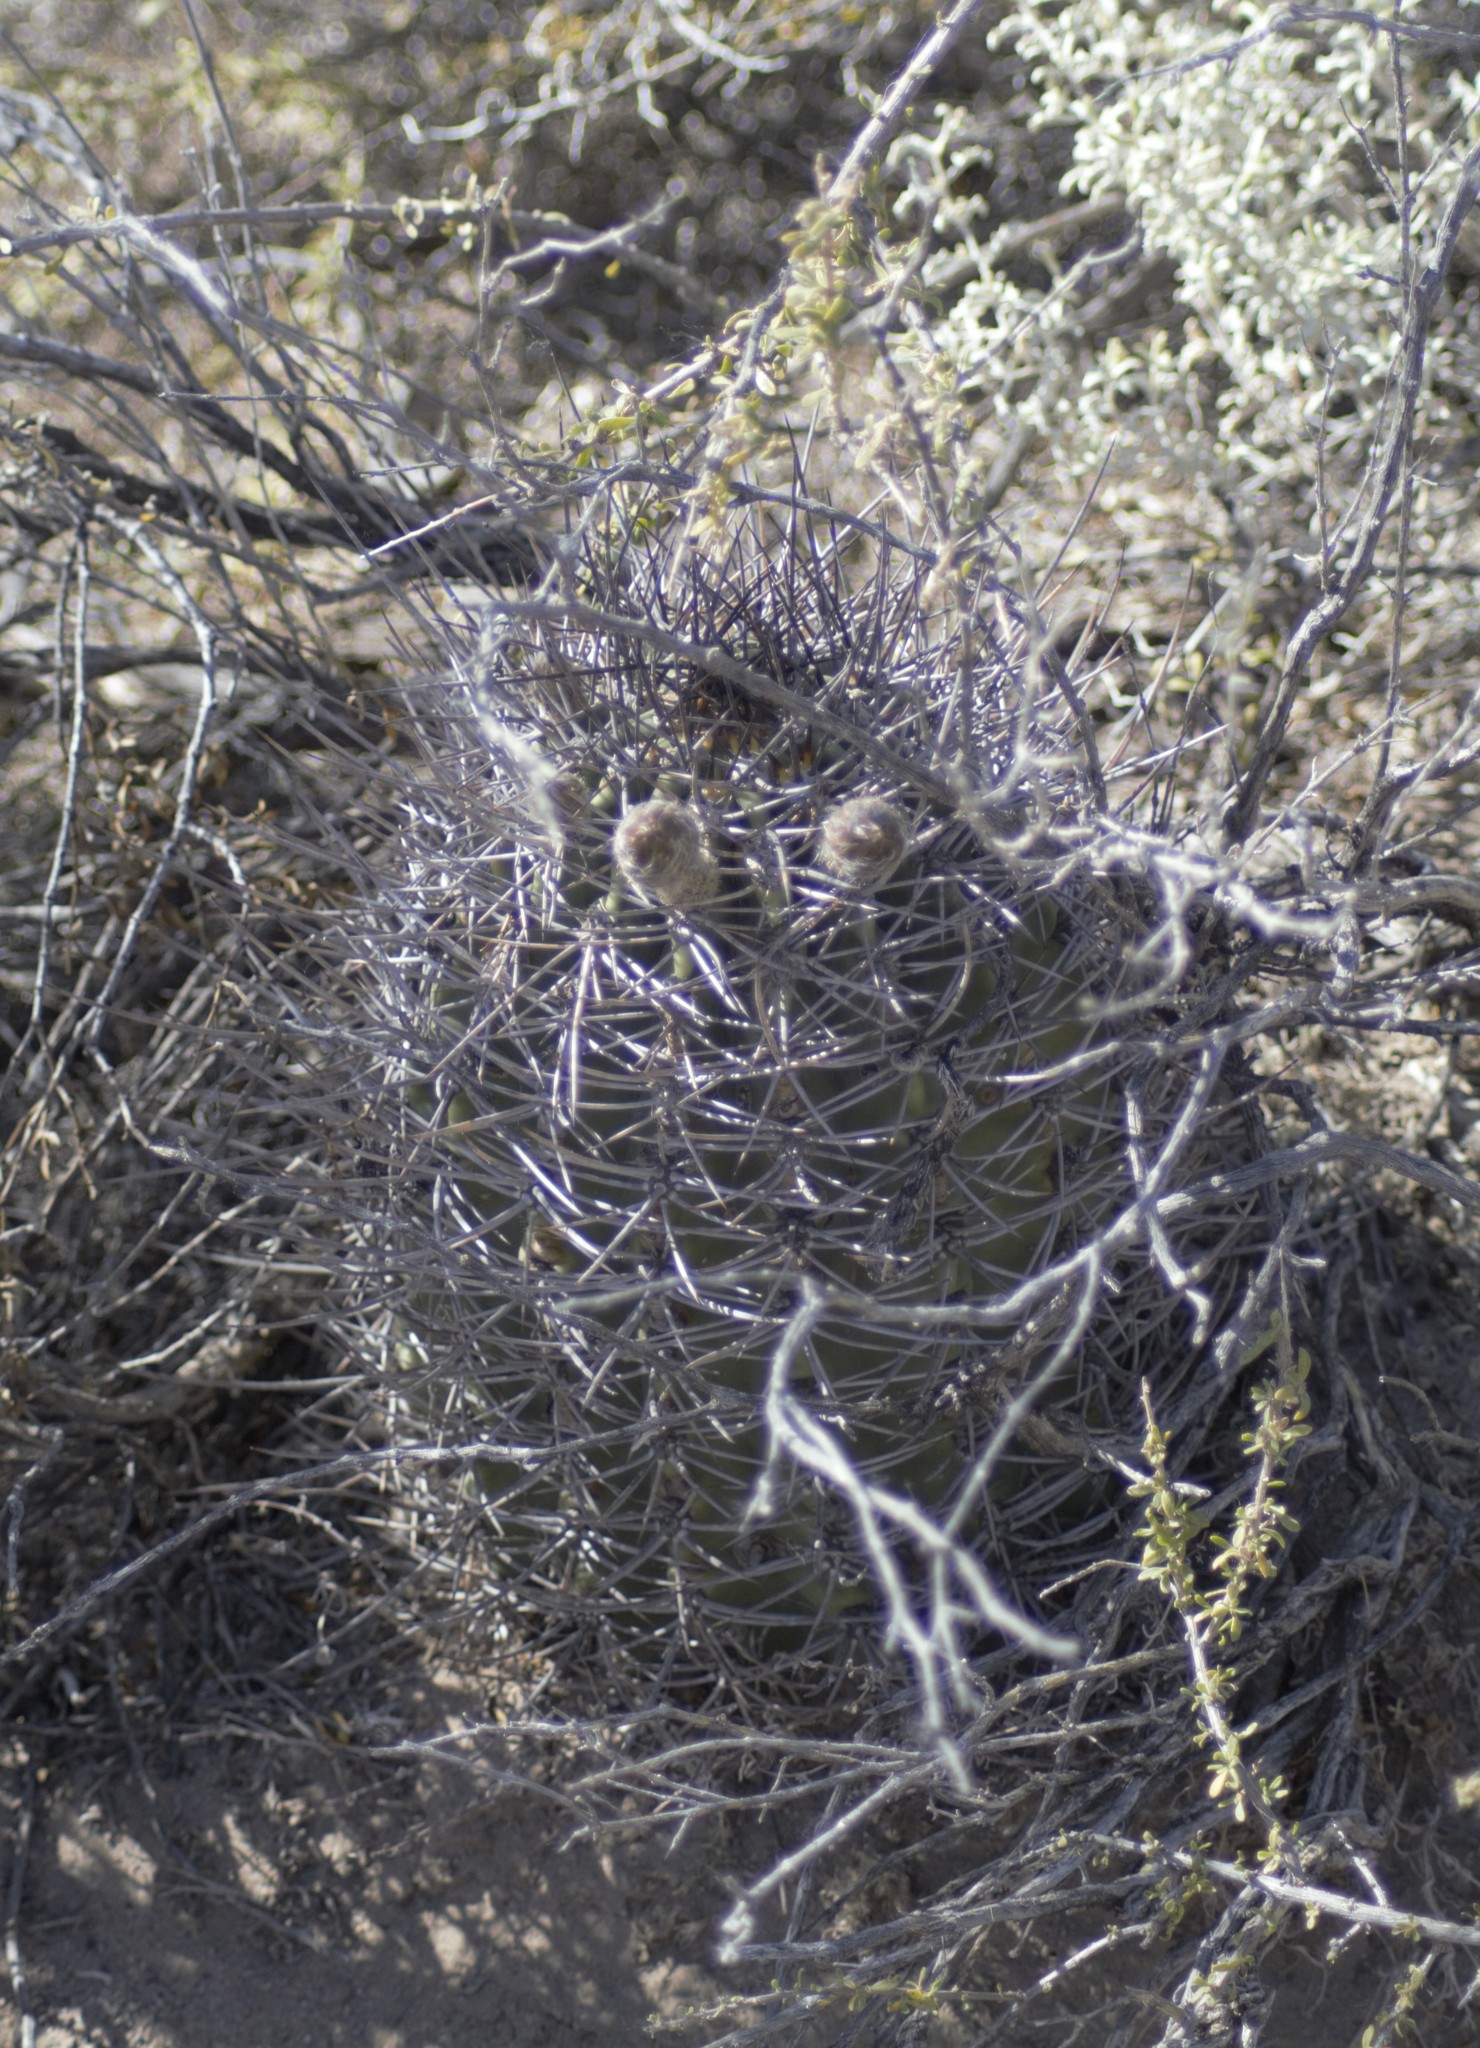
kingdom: Plantae
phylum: Tracheophyta
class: Magnoliopsida
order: Caryophyllales
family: Cactaceae
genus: Acanthocalycium
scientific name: Acanthocalycium leucanthum
